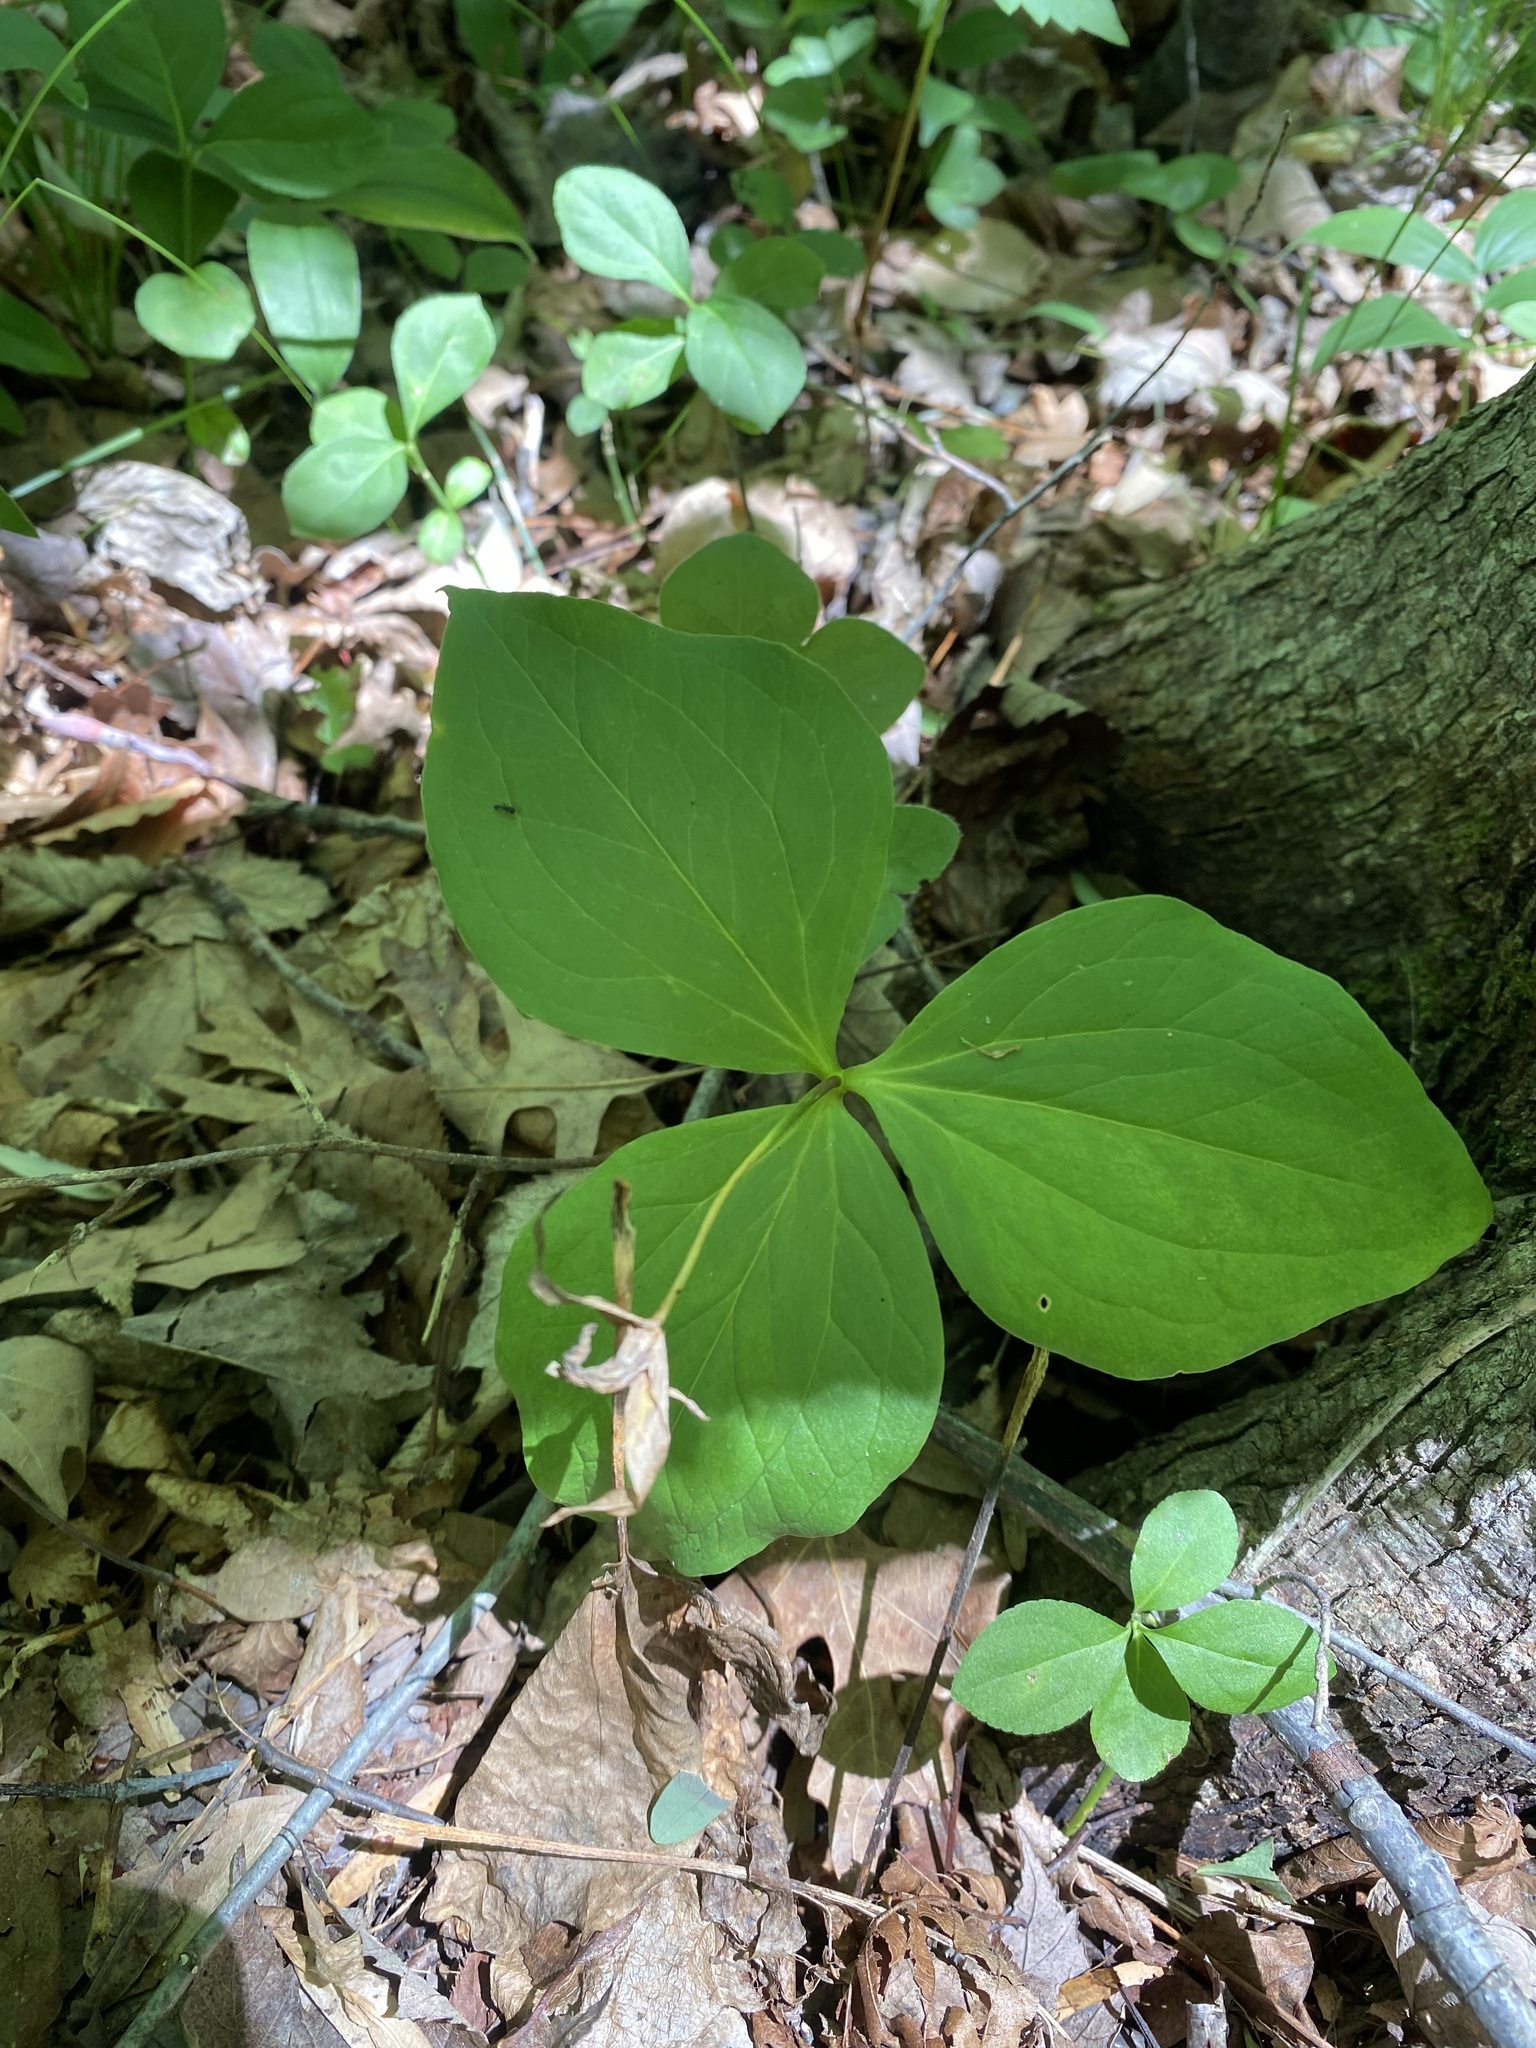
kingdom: Plantae
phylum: Tracheophyta
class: Liliopsida
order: Liliales
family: Melanthiaceae
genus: Trillium
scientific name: Trillium grandiflorum
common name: Great white trillium
